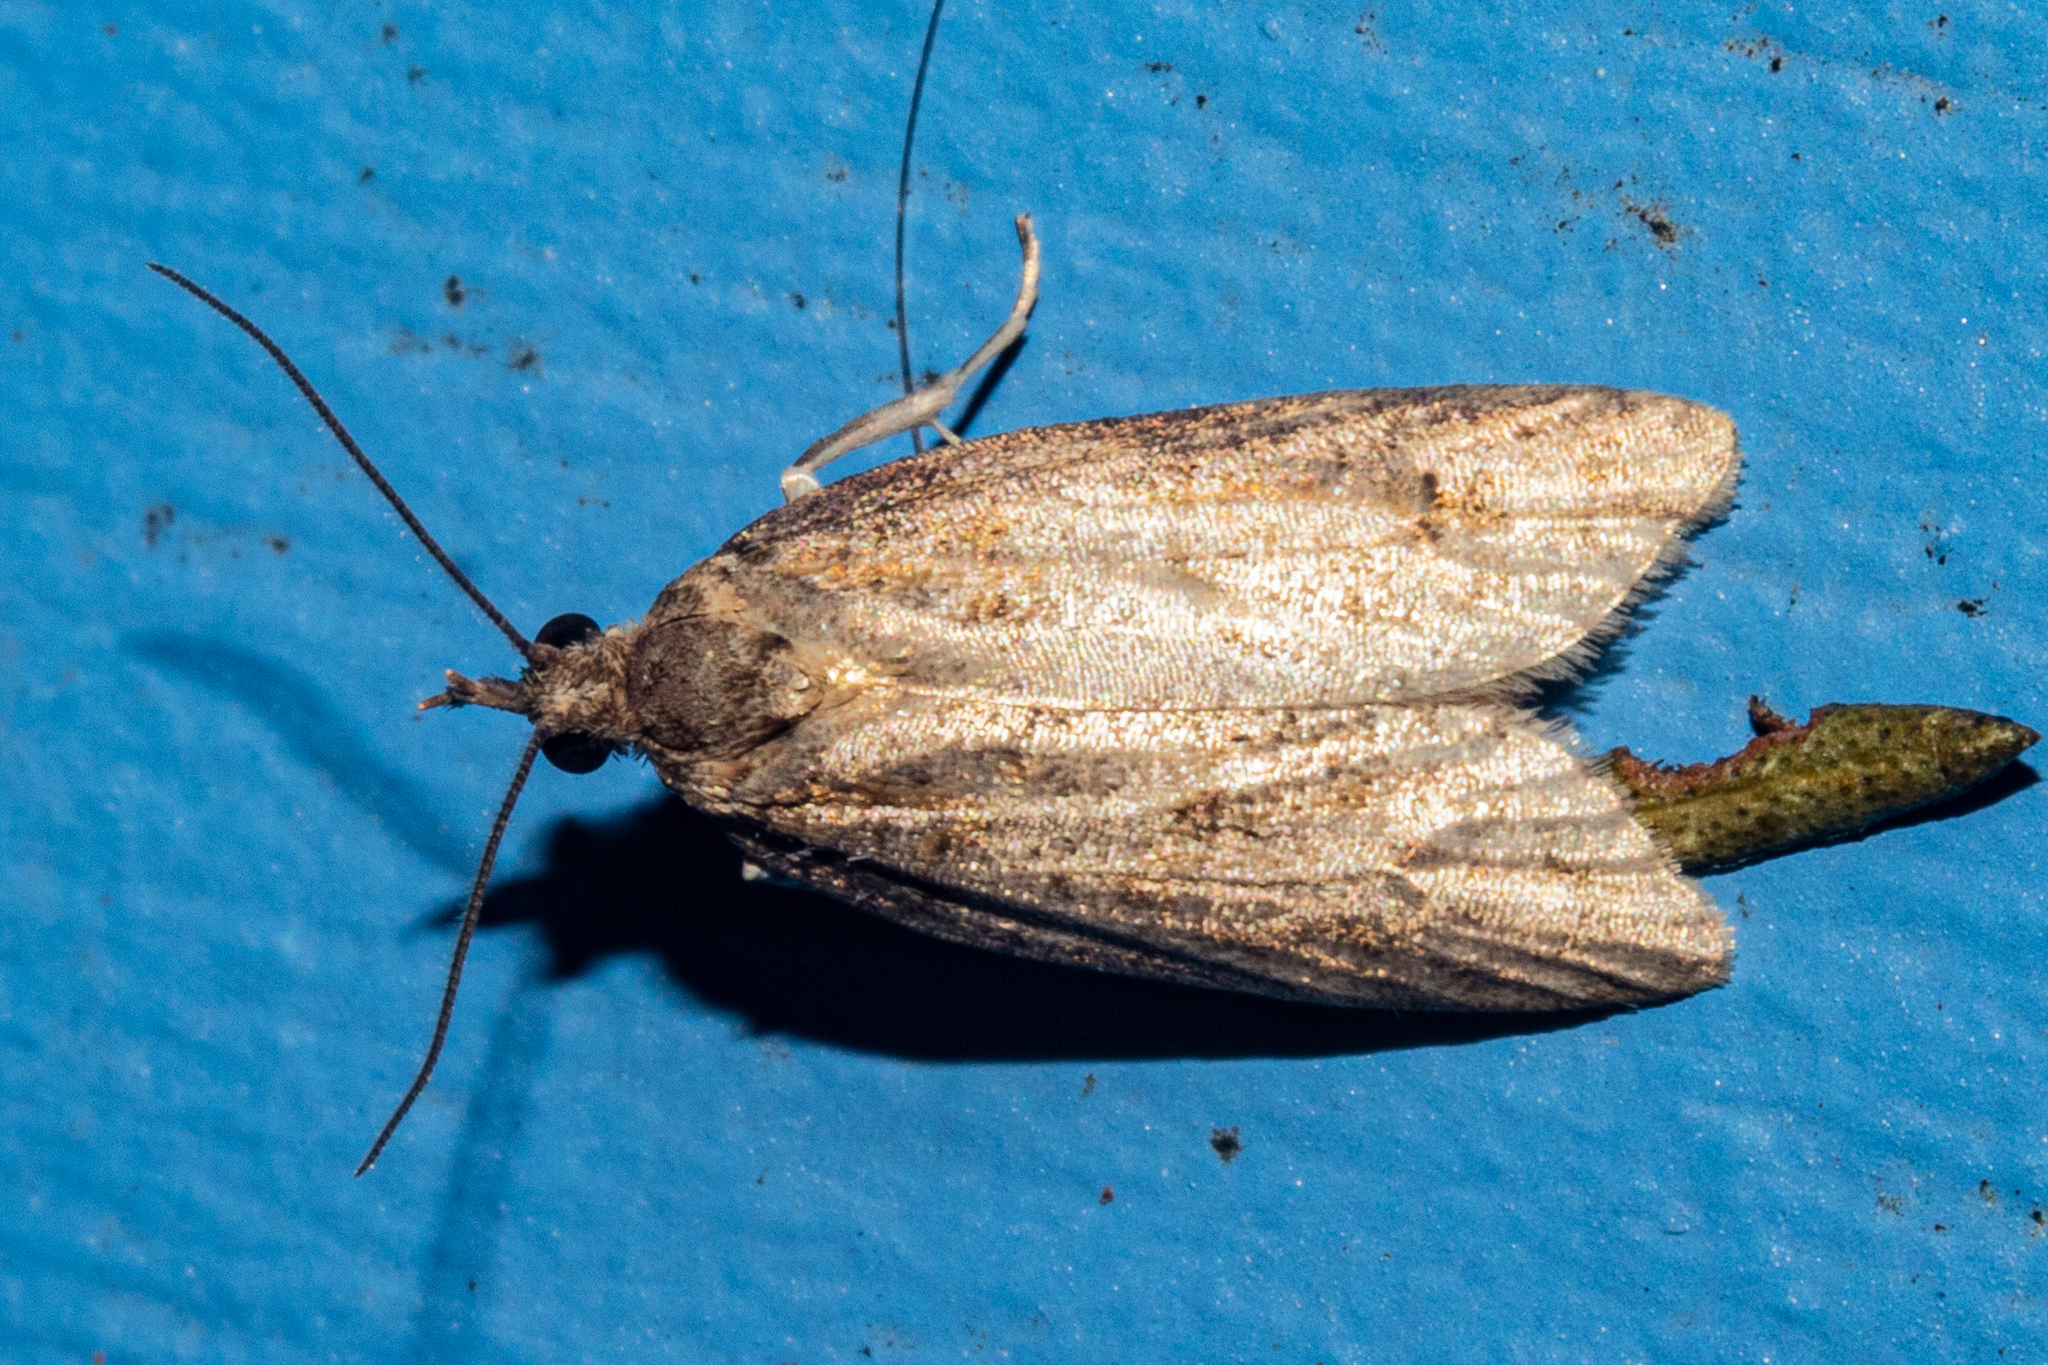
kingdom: Animalia
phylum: Arthropoda
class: Insecta
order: Lepidoptera
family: Tortricidae
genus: Prothelymna
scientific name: Prothelymna antiquana
